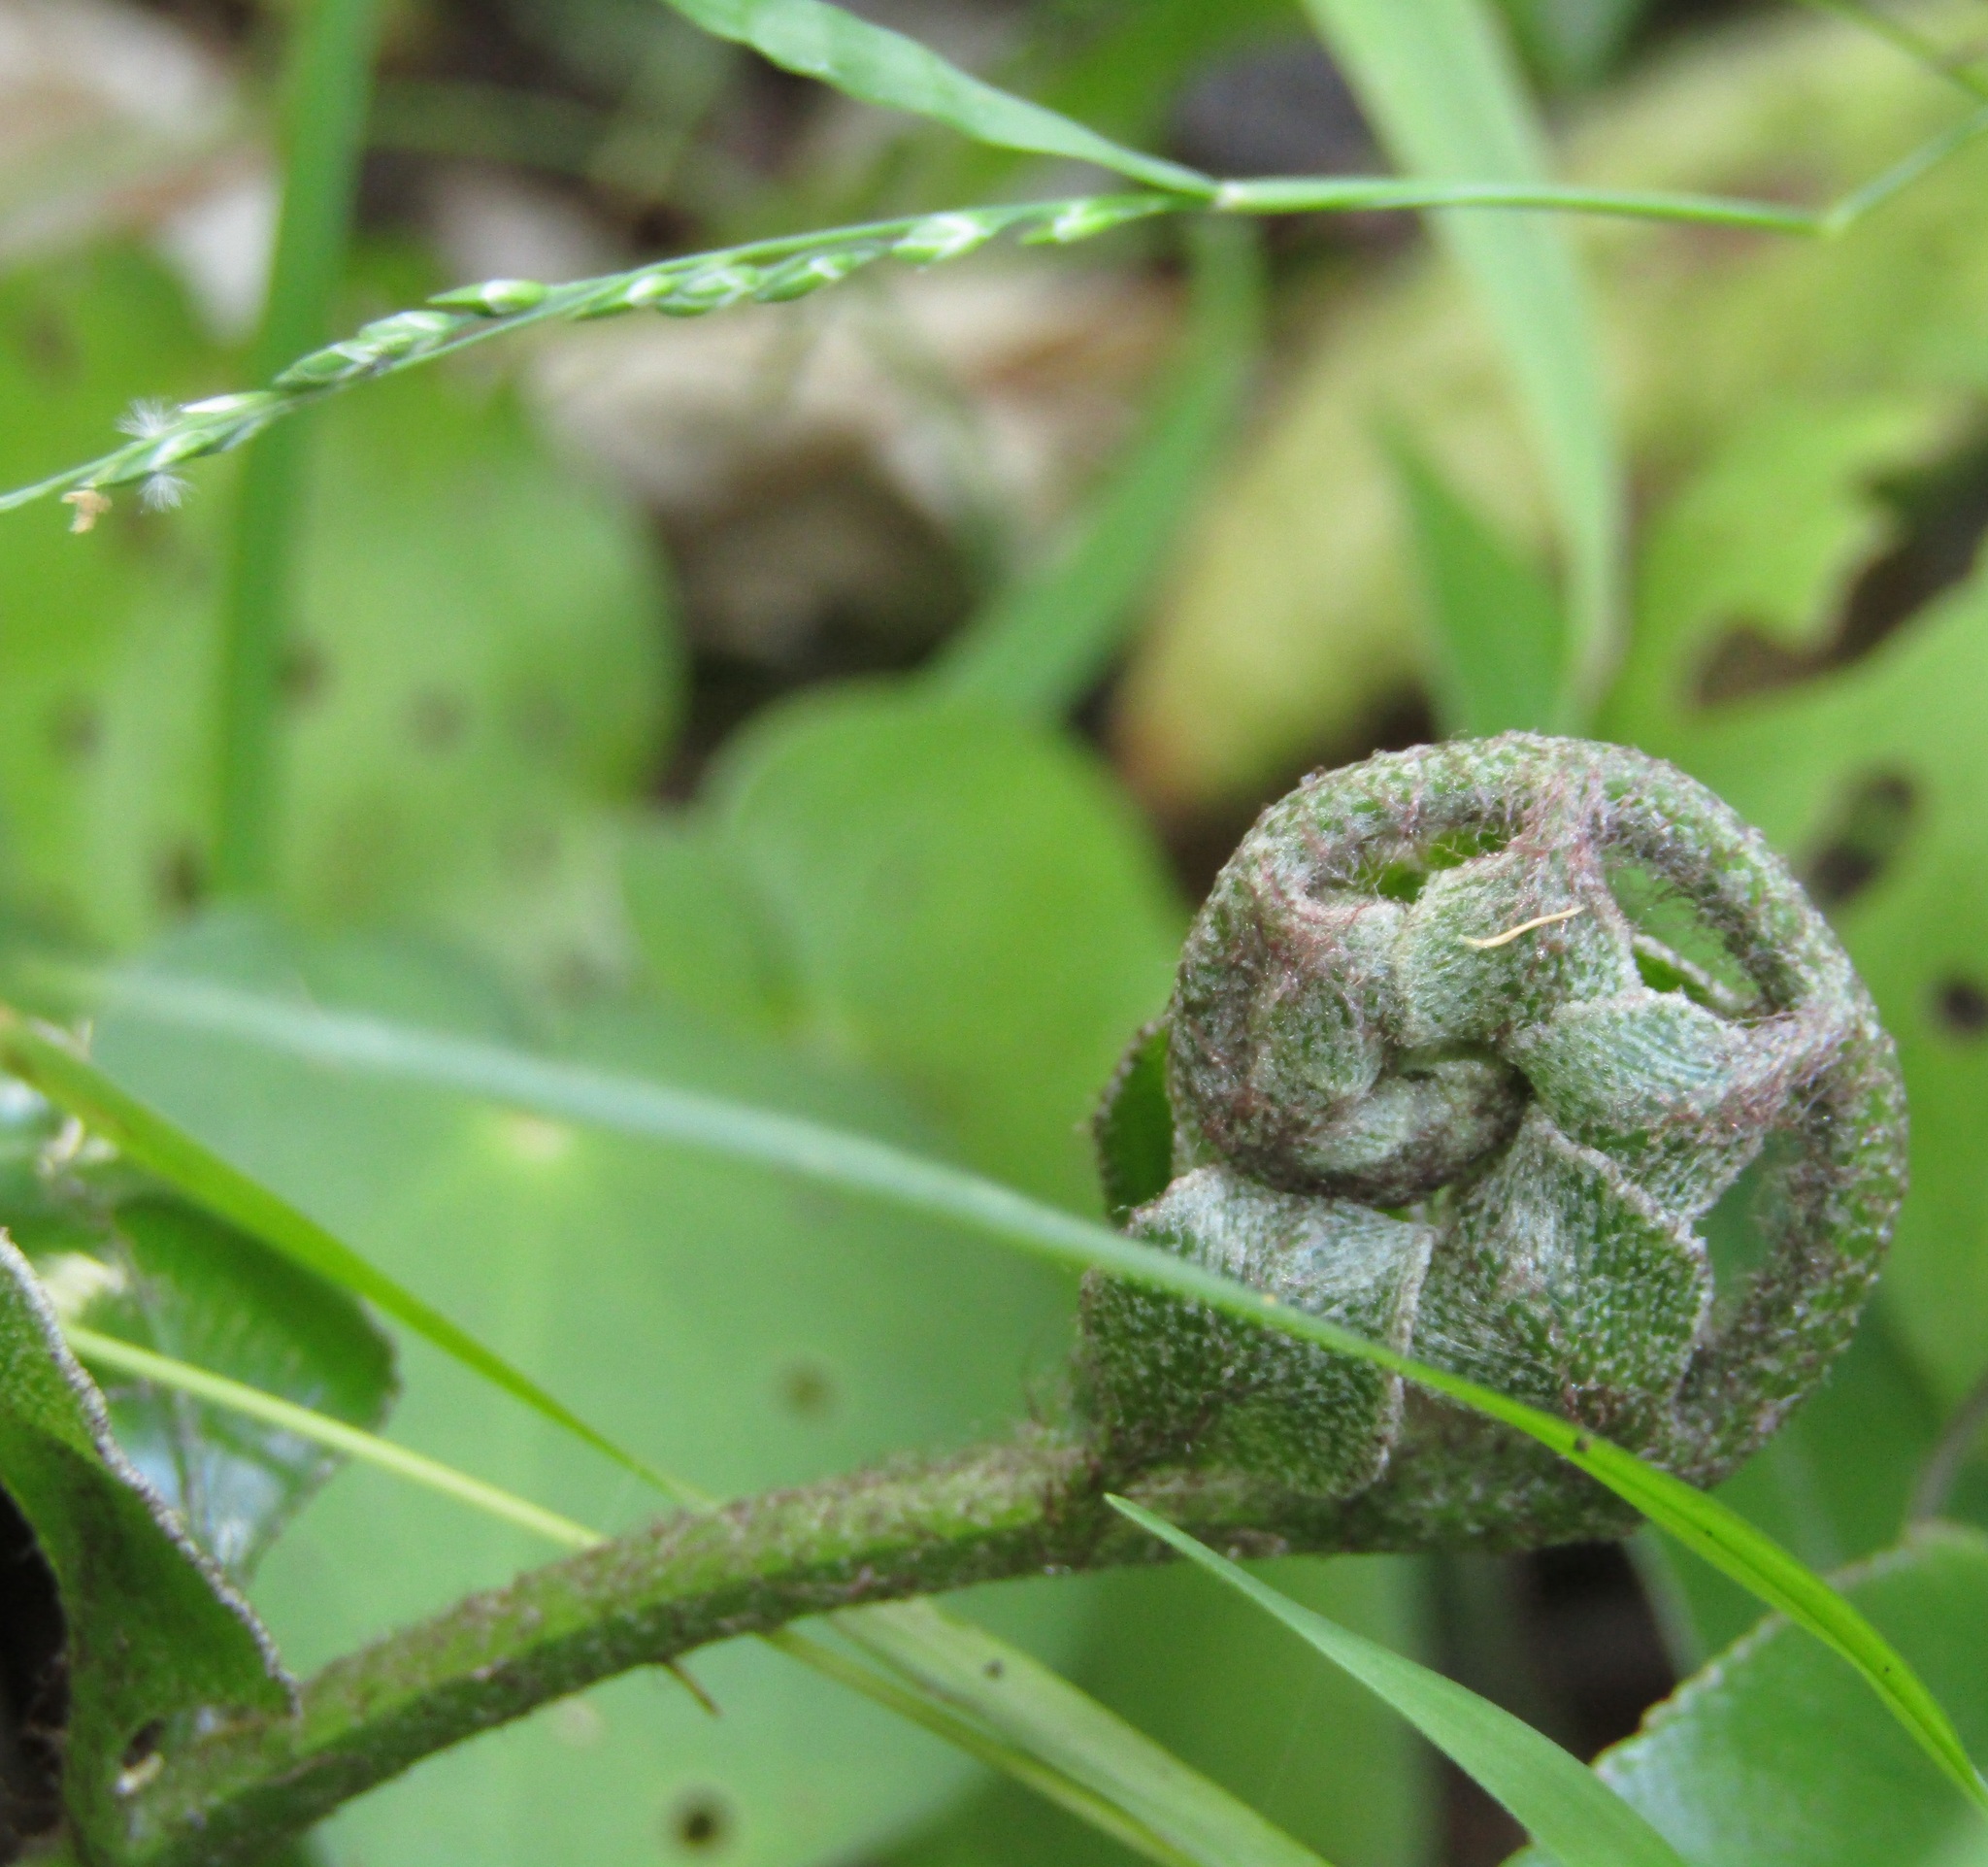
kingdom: Plantae
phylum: Tracheophyta
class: Polypodiopsida
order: Polypodiales
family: Aspleniaceae
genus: Asplenium
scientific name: Asplenium oblongifolium
